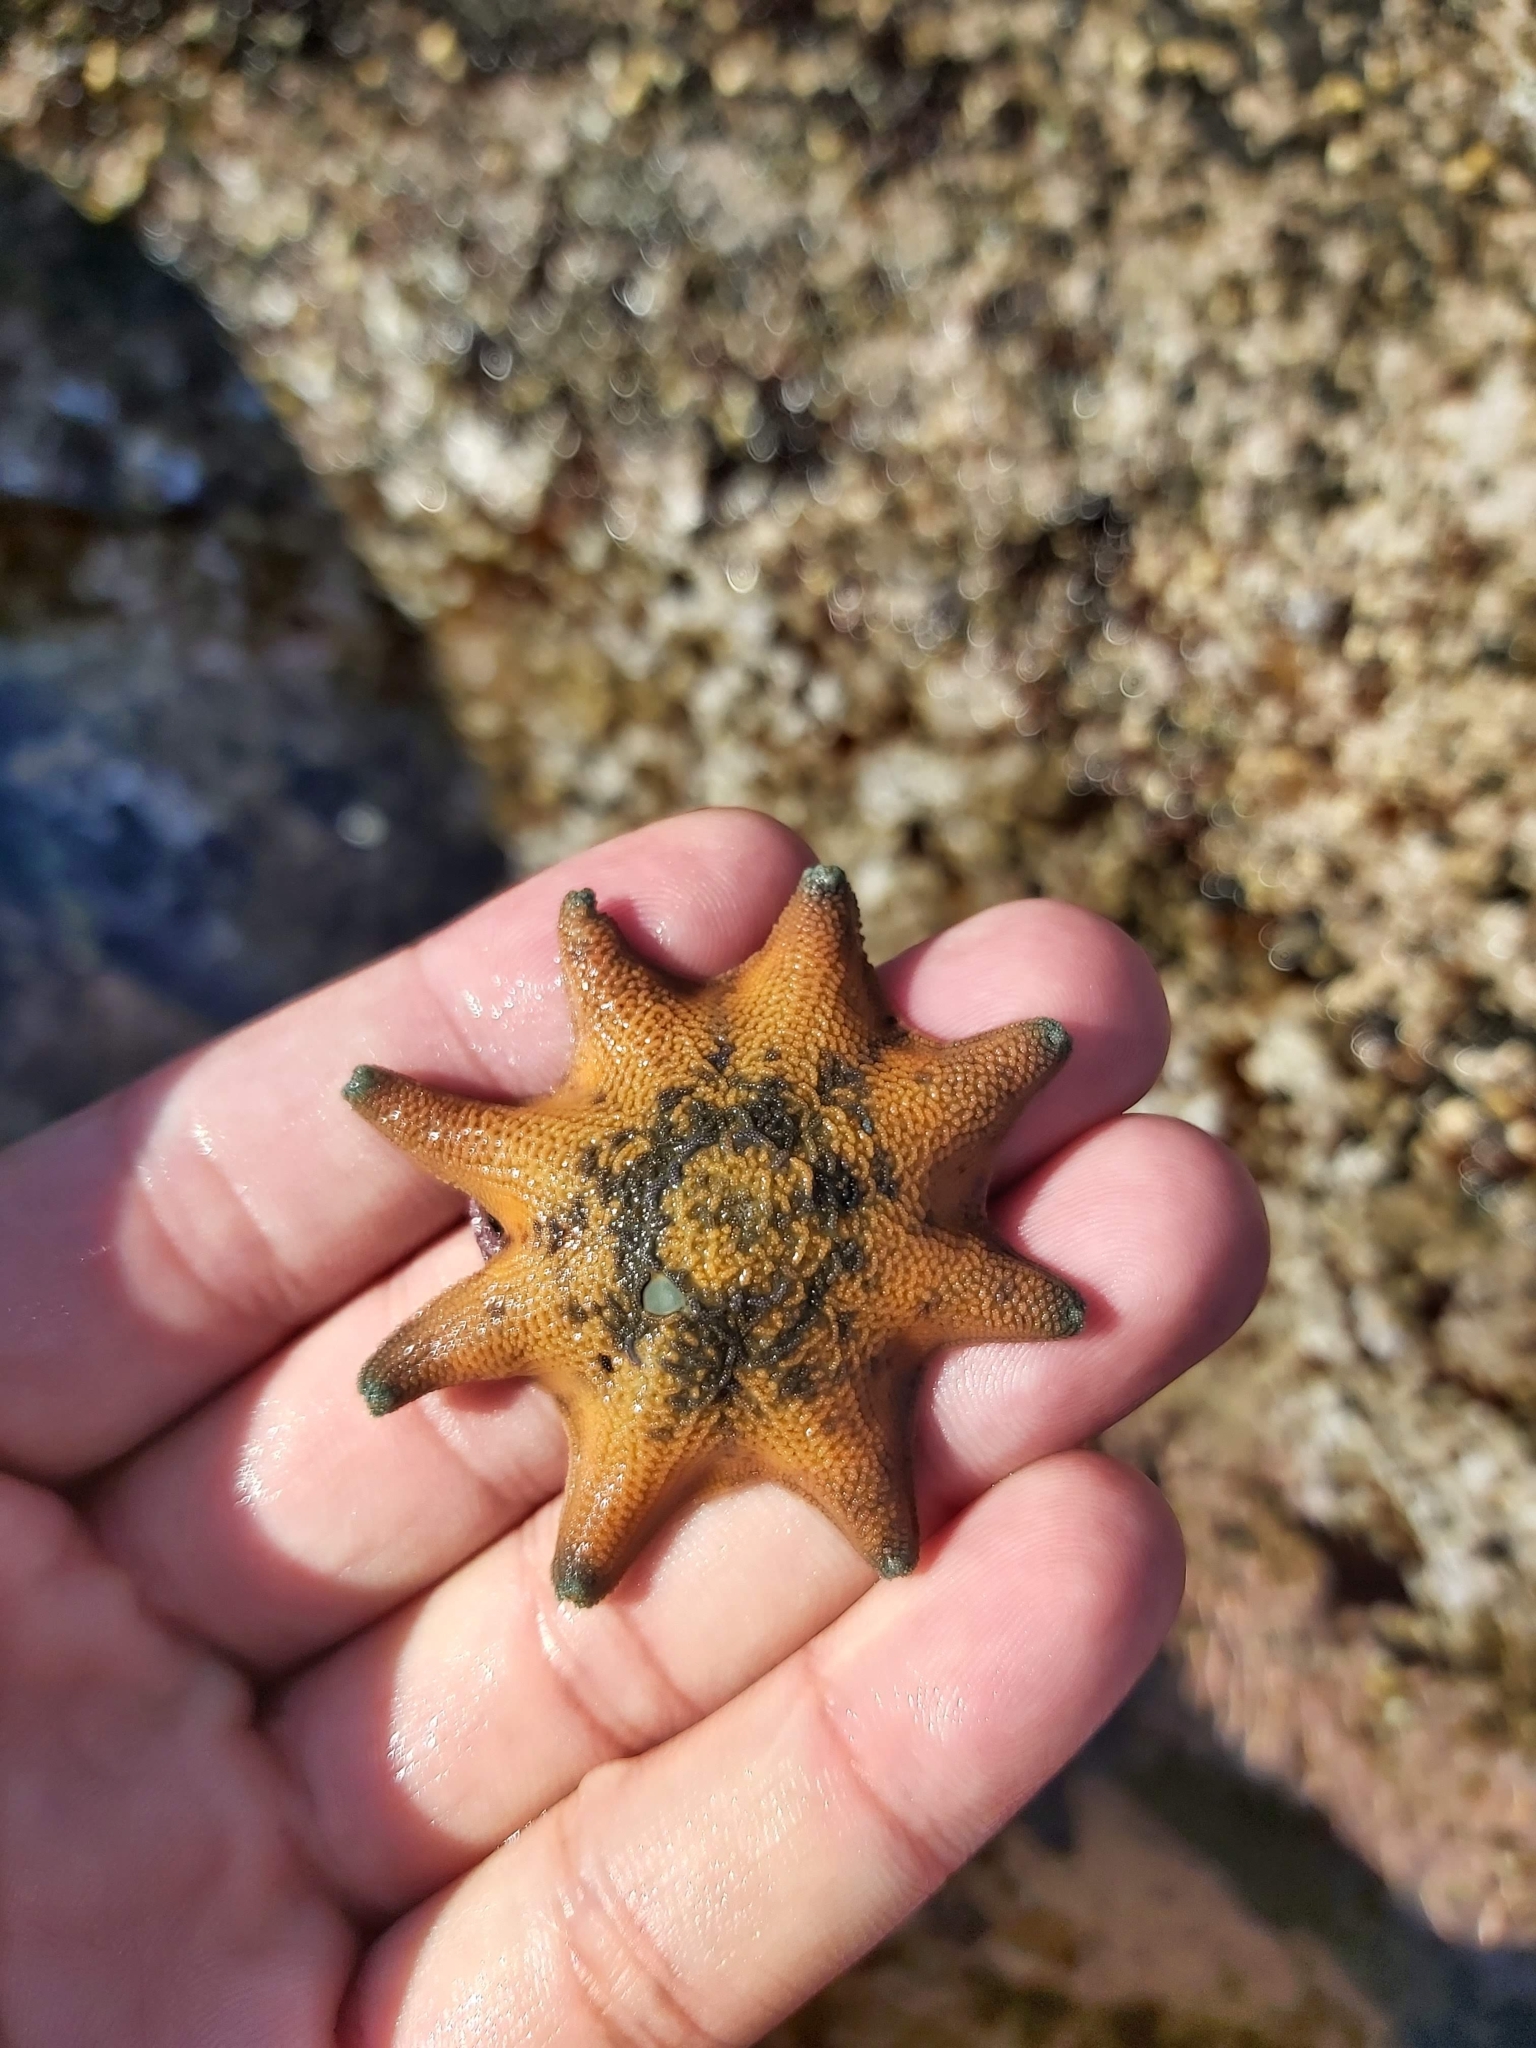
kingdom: Animalia
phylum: Echinodermata
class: Asteroidea
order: Valvatida
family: Asterinidae
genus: Meridiastra
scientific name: Meridiastra calcar
